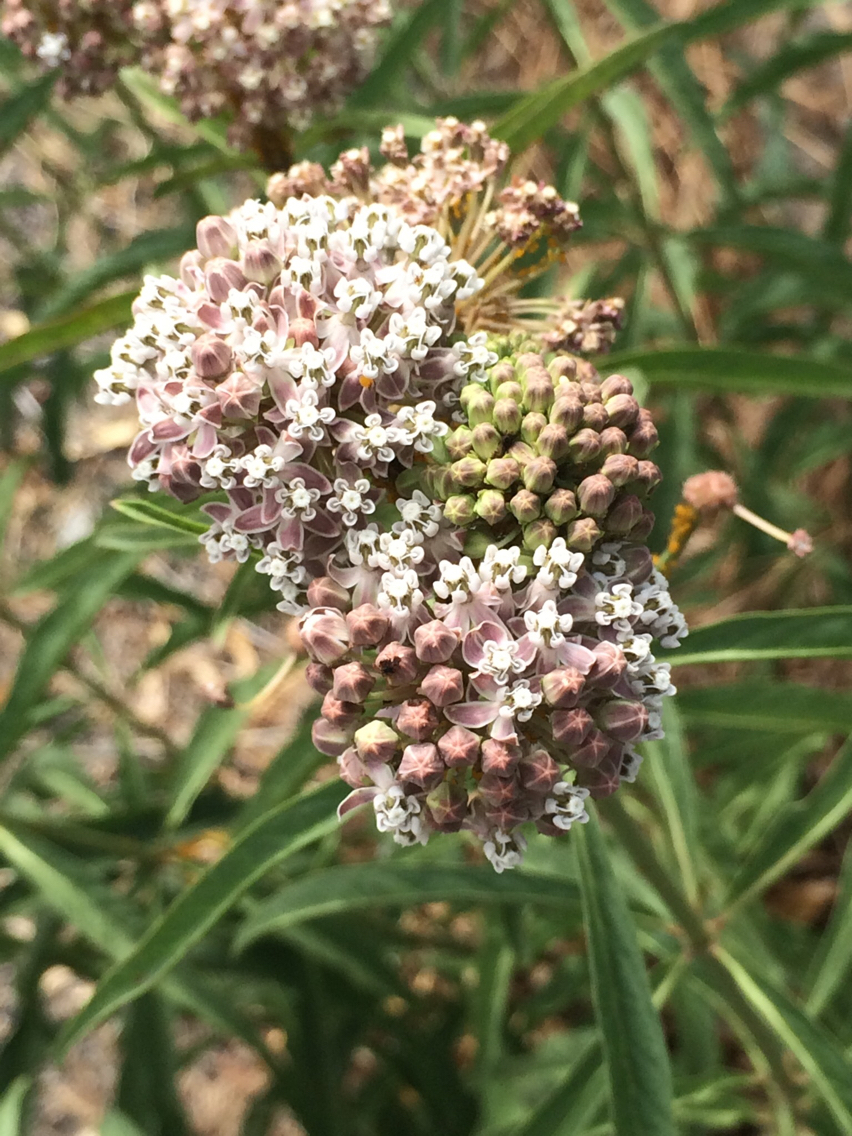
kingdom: Plantae
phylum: Tracheophyta
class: Magnoliopsida
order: Gentianales
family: Apocynaceae
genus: Asclepias
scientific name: Asclepias fascicularis
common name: Mexican milkweed
